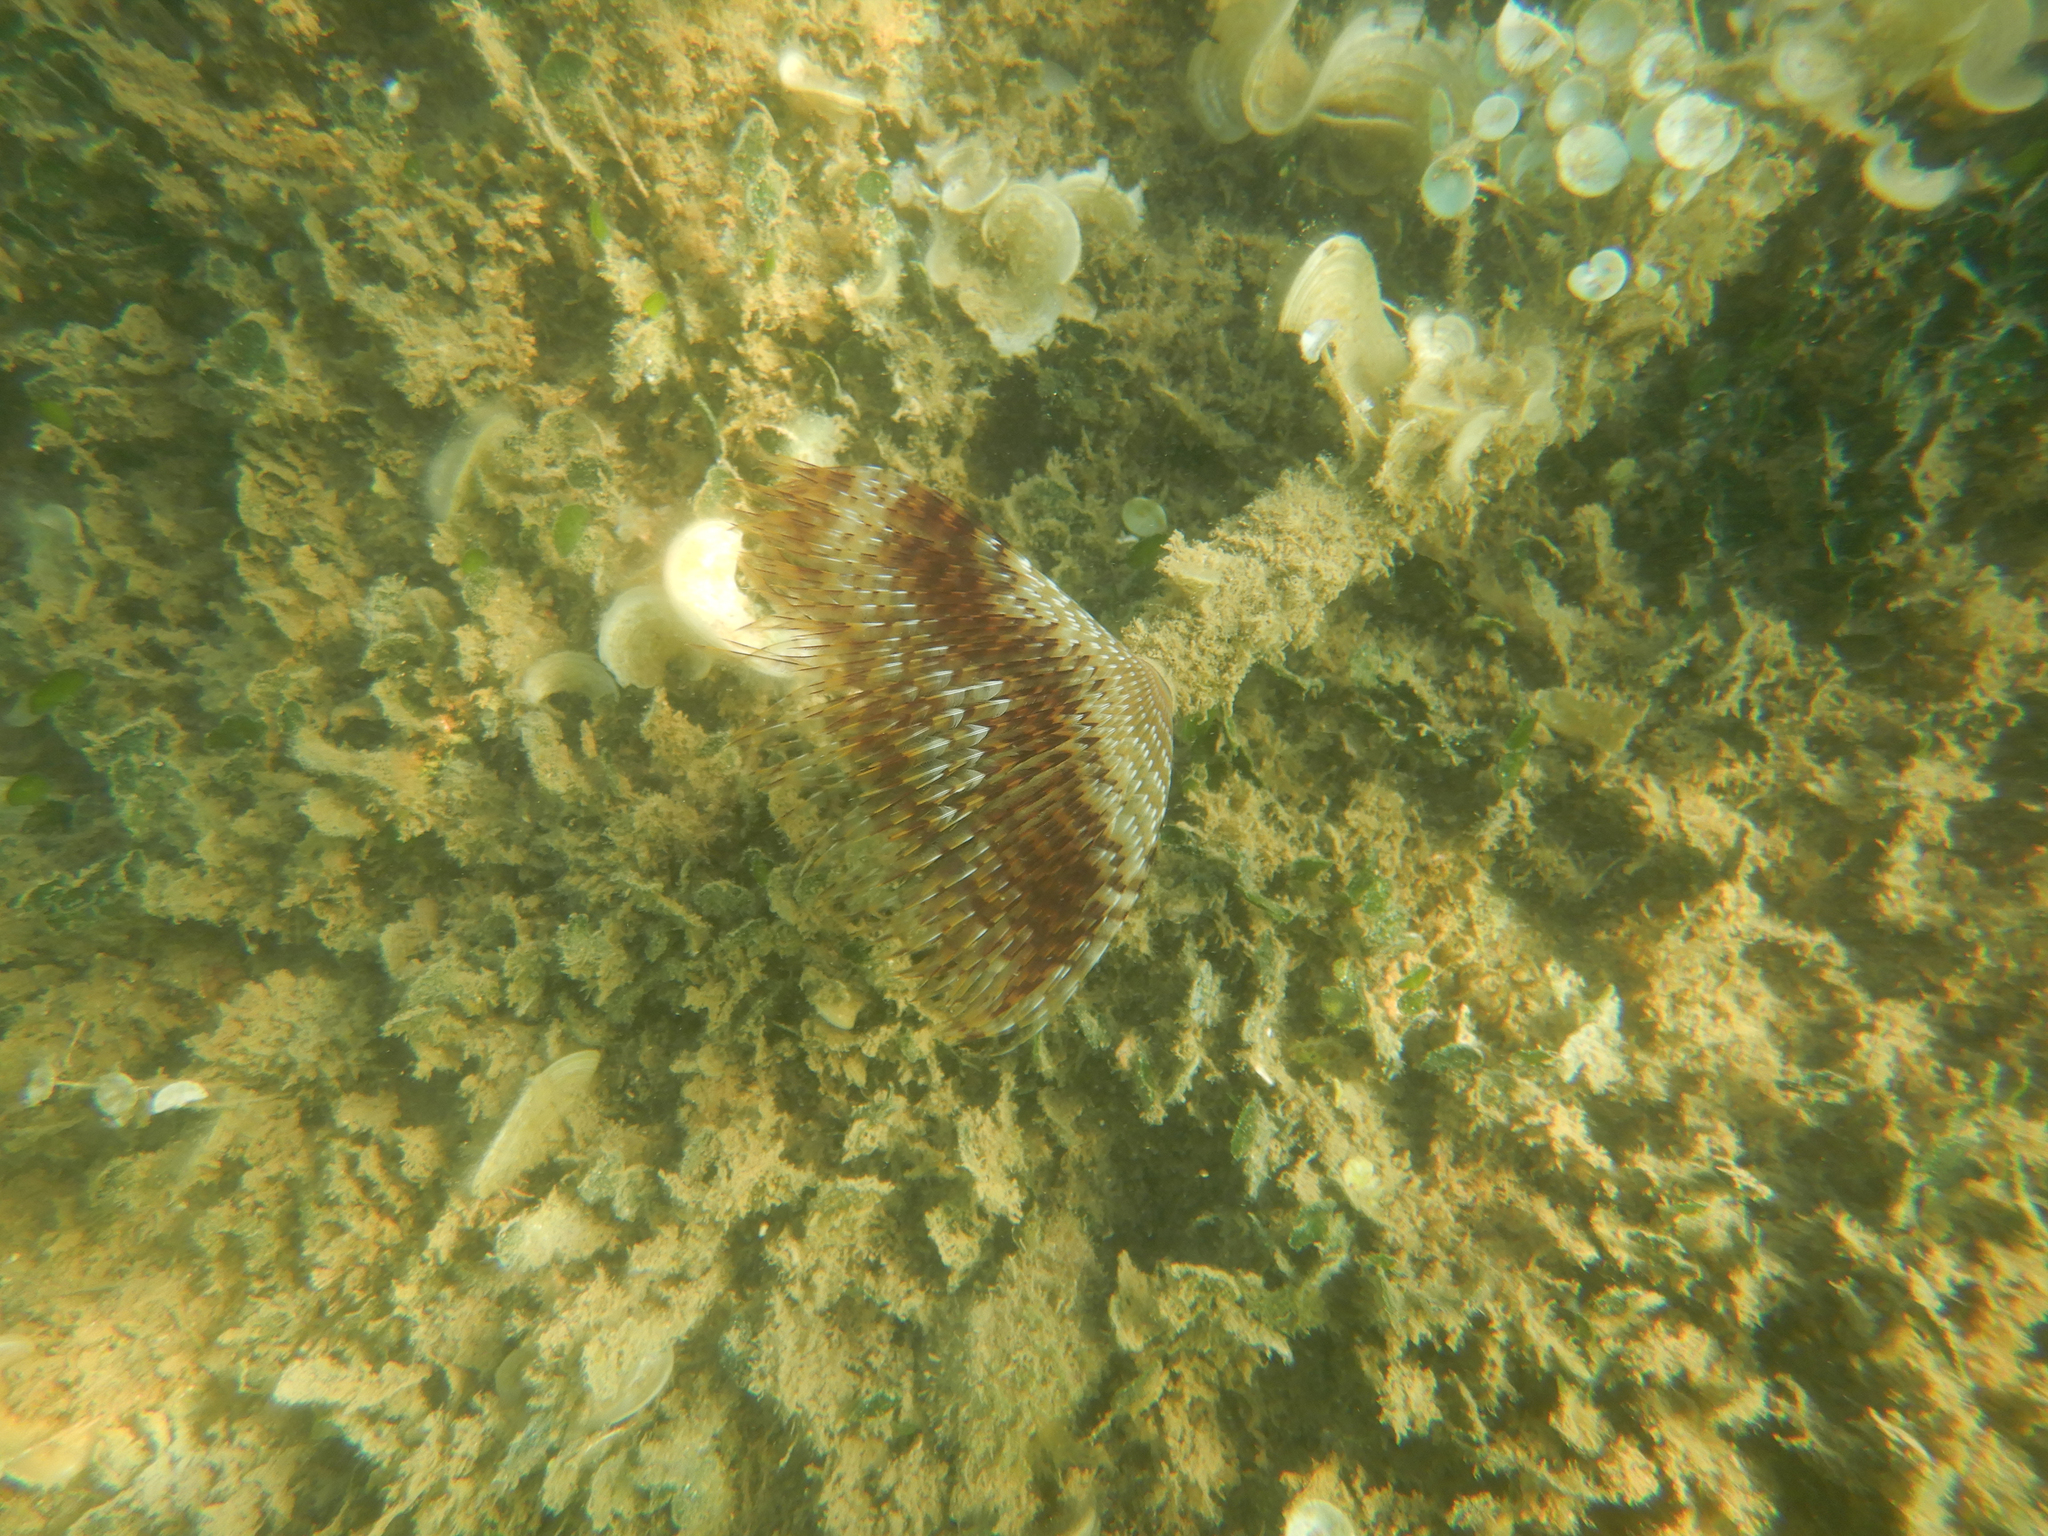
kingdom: Animalia
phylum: Annelida
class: Polychaeta
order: Sabellida
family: Sabellidae
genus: Sabella
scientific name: Sabella spallanzanii
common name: Feather duster worm
